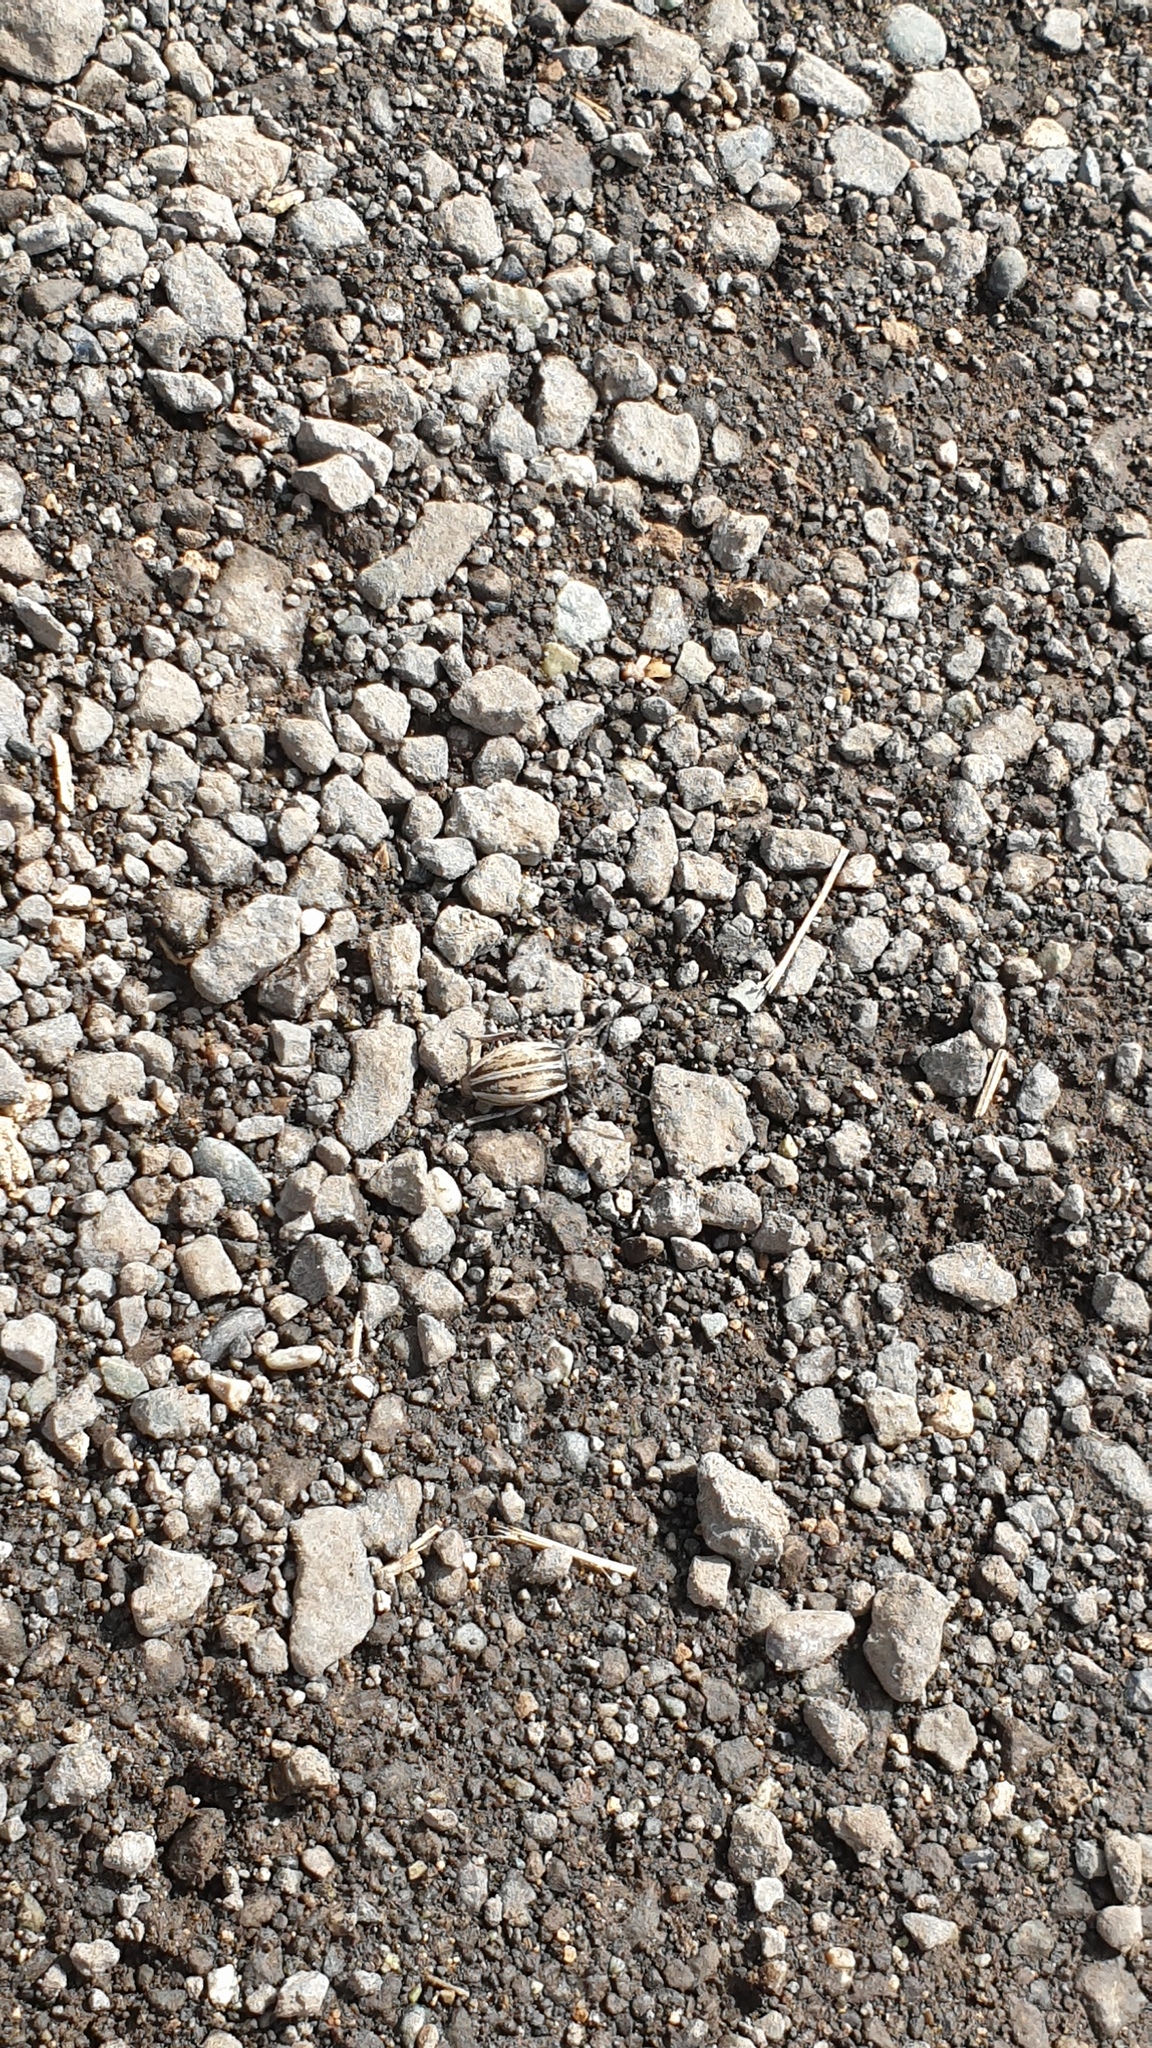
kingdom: Animalia
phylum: Arthropoda
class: Insecta
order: Coleoptera
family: Cerambycidae
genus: Dorcadion
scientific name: Dorcadion cinerarium
